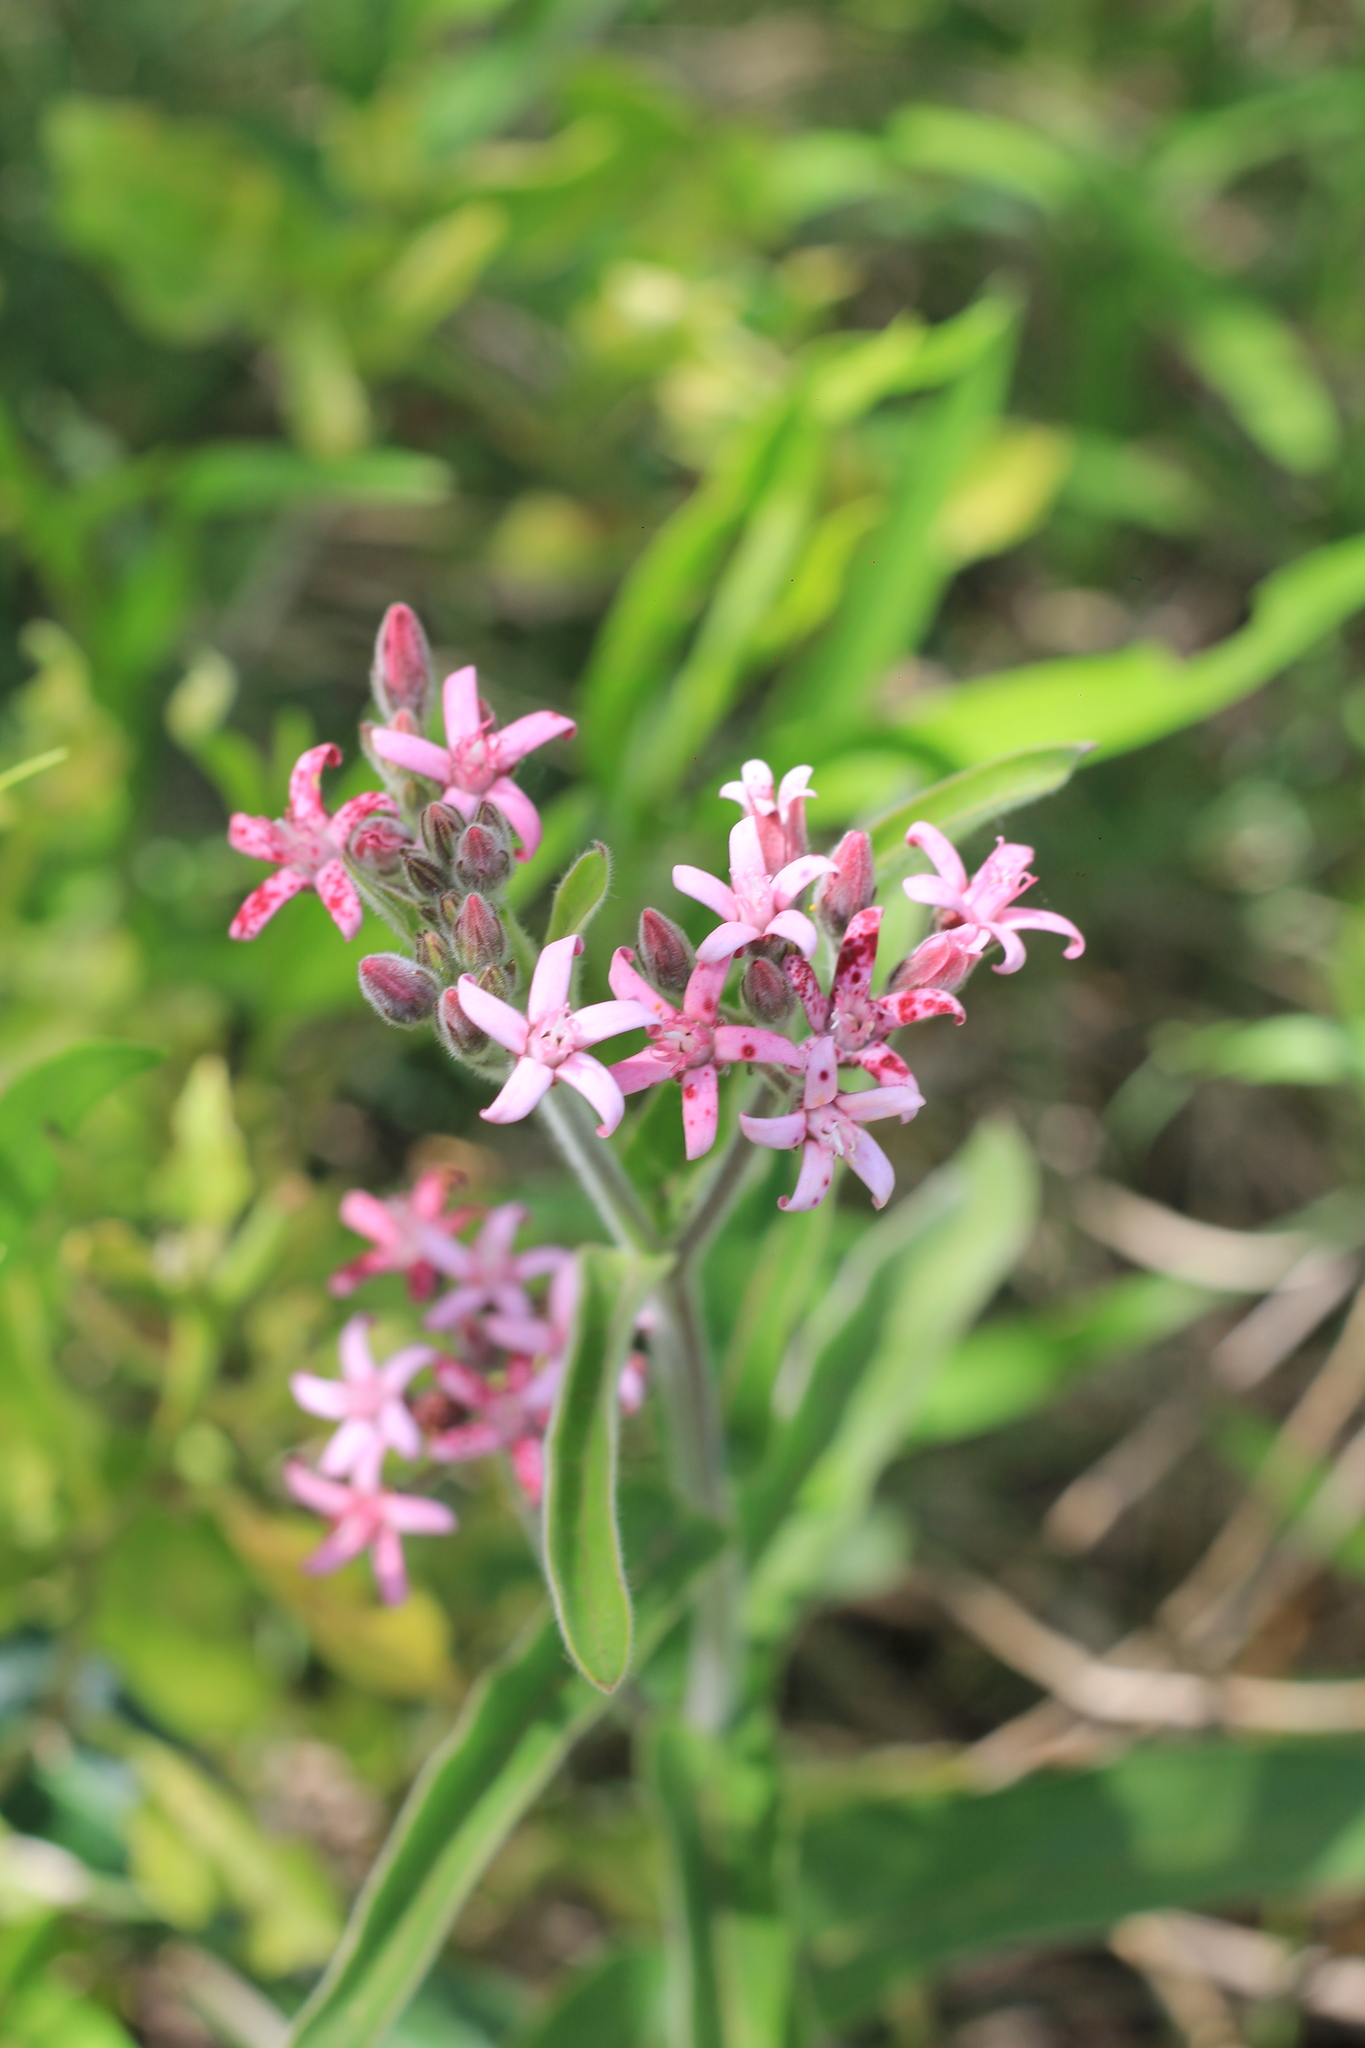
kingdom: Plantae
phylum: Tracheophyta
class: Magnoliopsida
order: Gentianales
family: Apocynaceae
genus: Oxypetalum
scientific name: Oxypetalum solanoides
